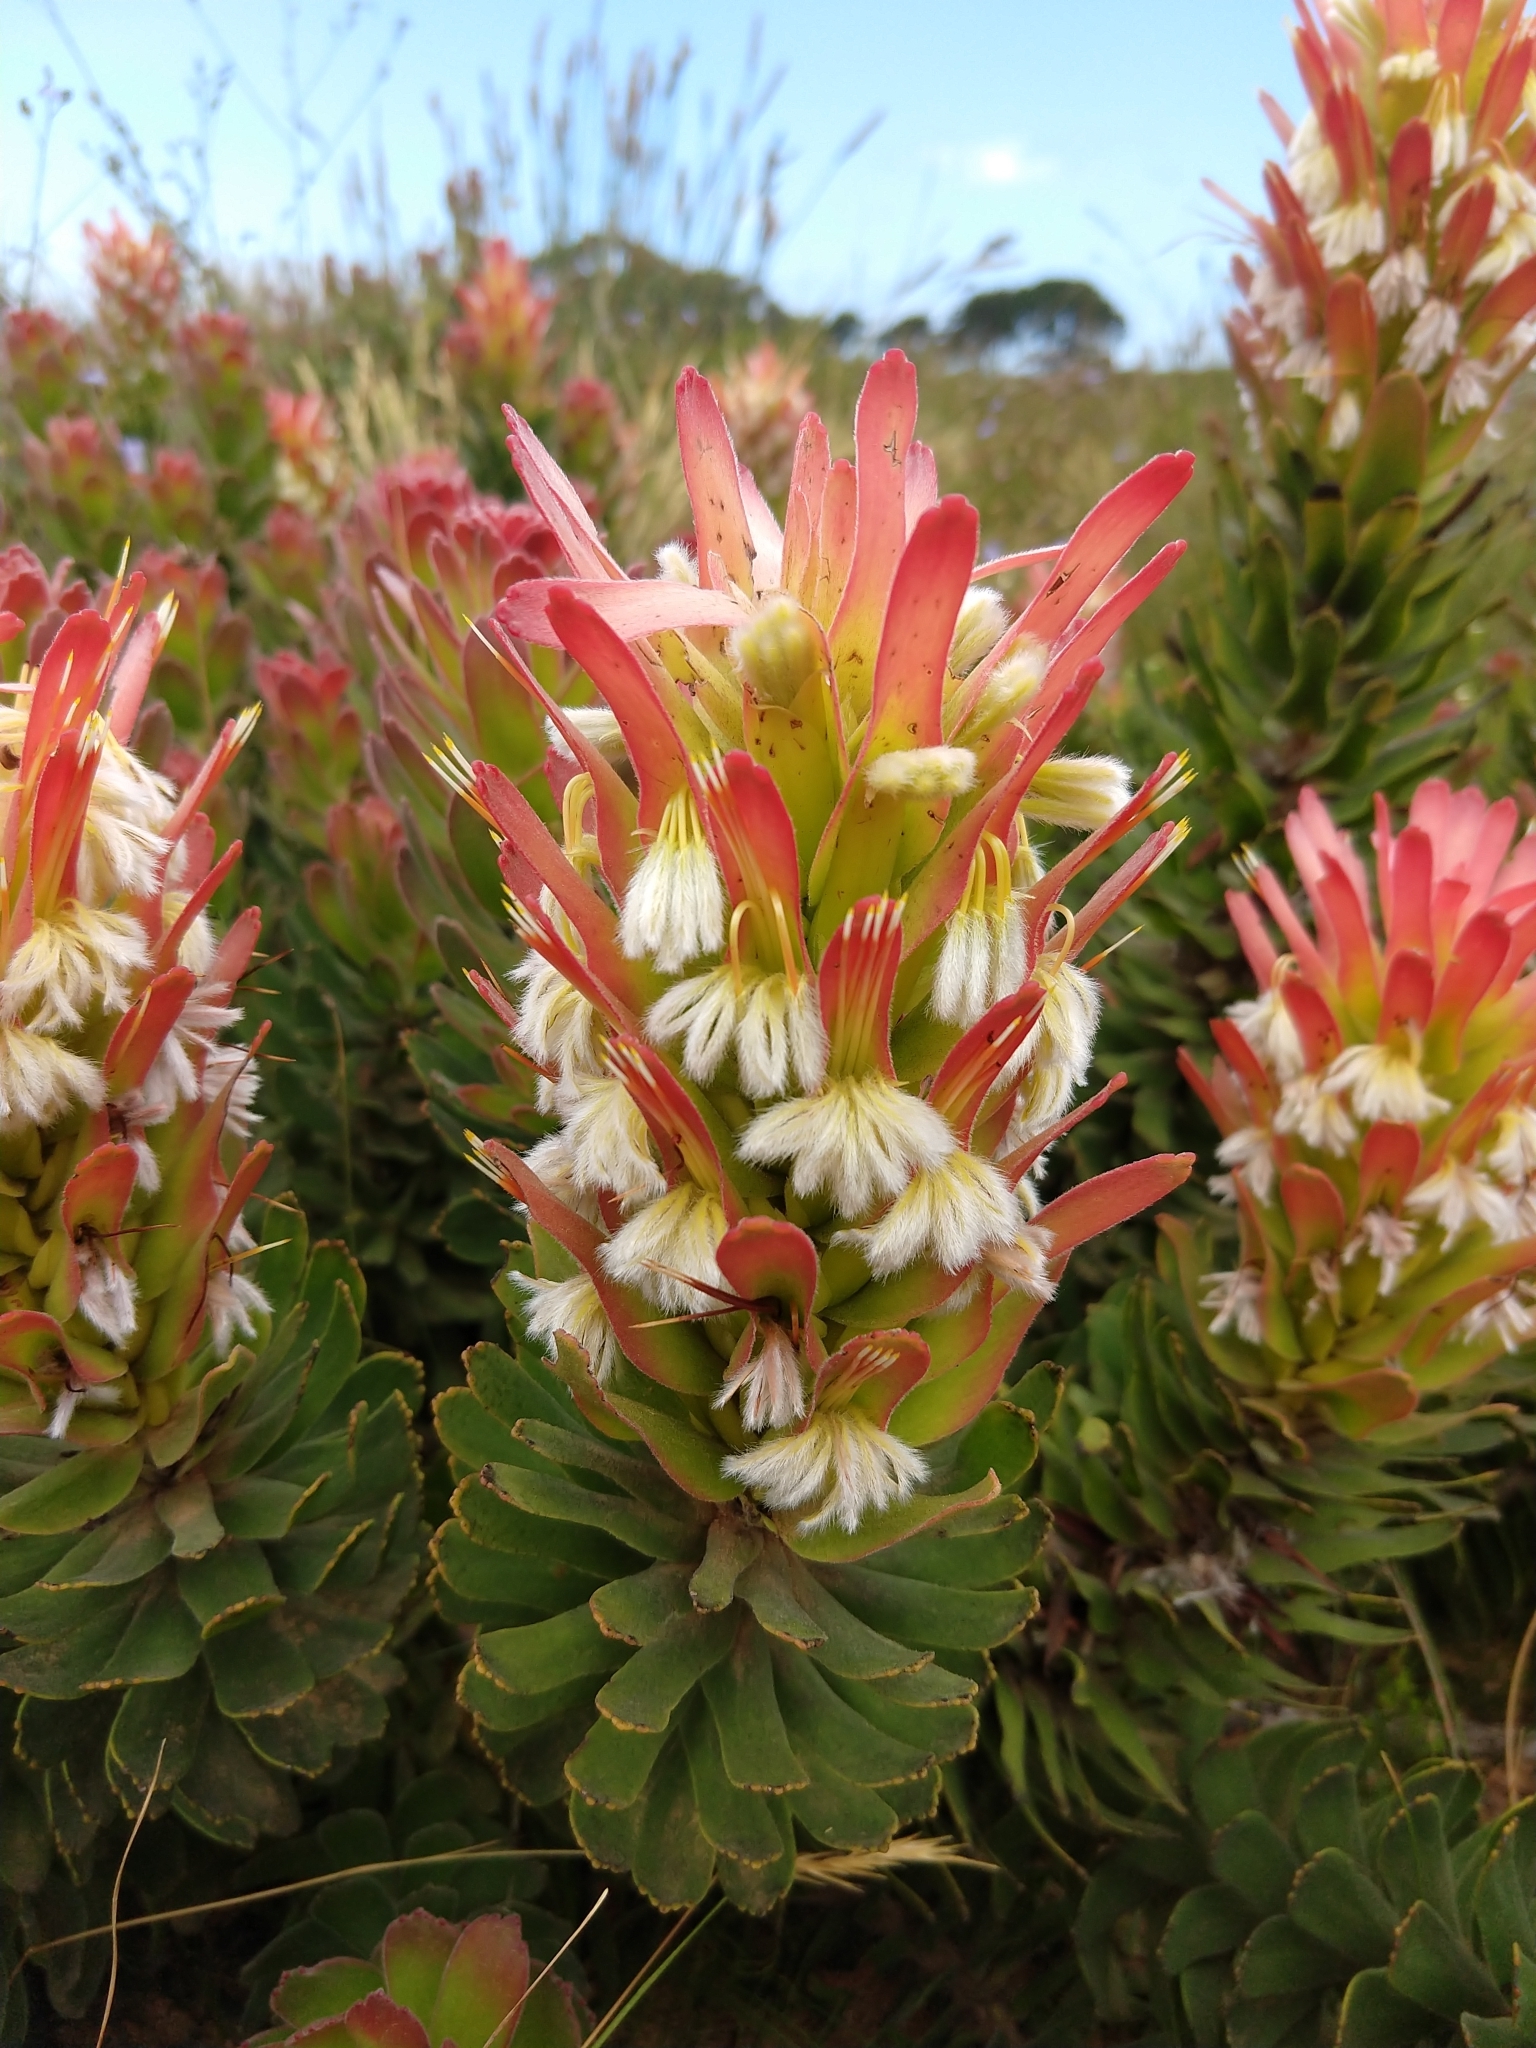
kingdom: Plantae
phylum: Tracheophyta
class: Magnoliopsida
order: Proteales
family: Proteaceae
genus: Mimetes
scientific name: Mimetes cucullatus
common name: Common pagoda
